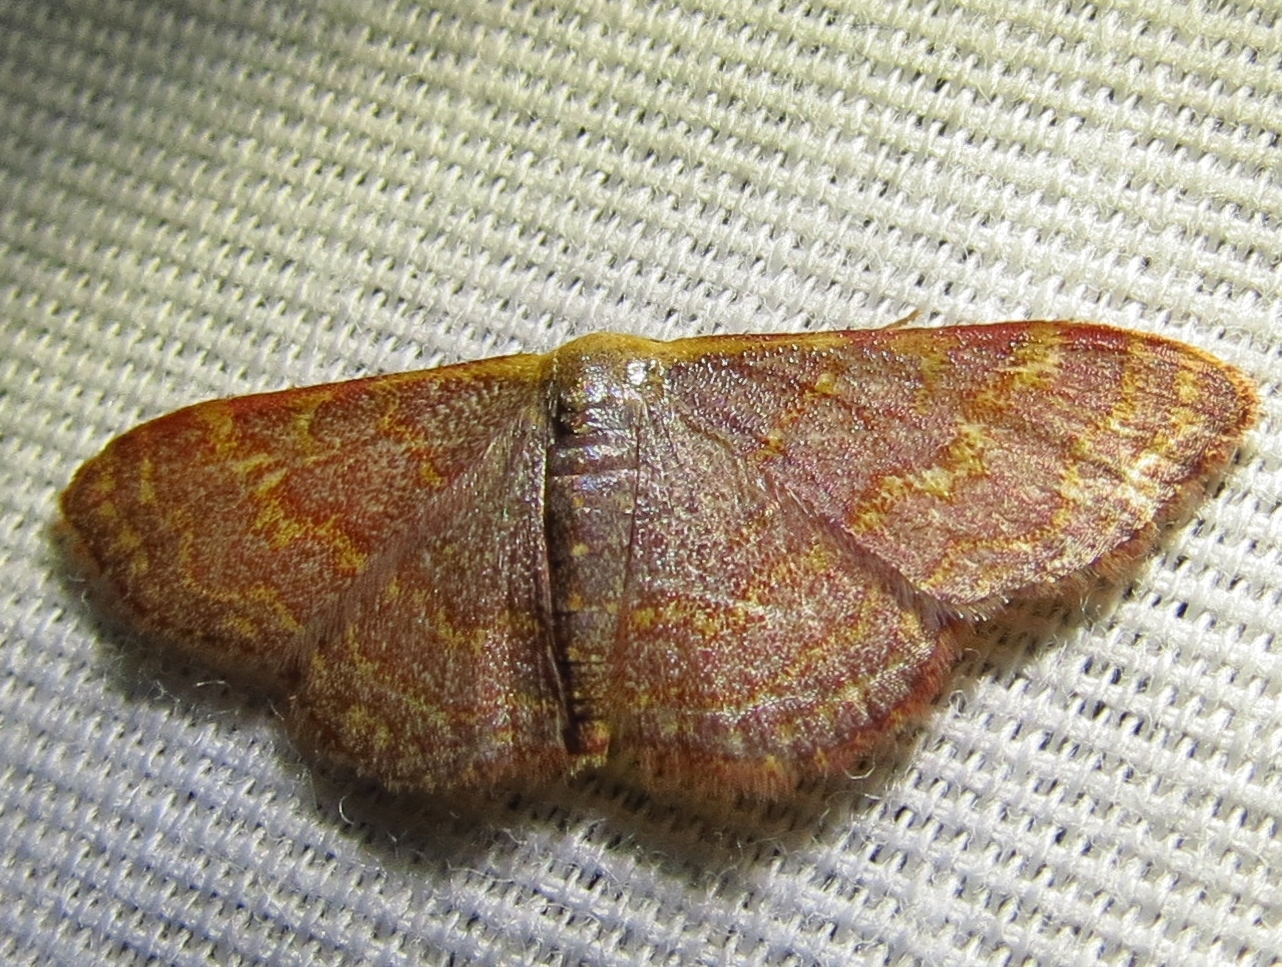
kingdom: Animalia
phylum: Arthropoda
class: Insecta
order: Lepidoptera
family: Geometridae
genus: Leptostales
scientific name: Leptostales pannaria
